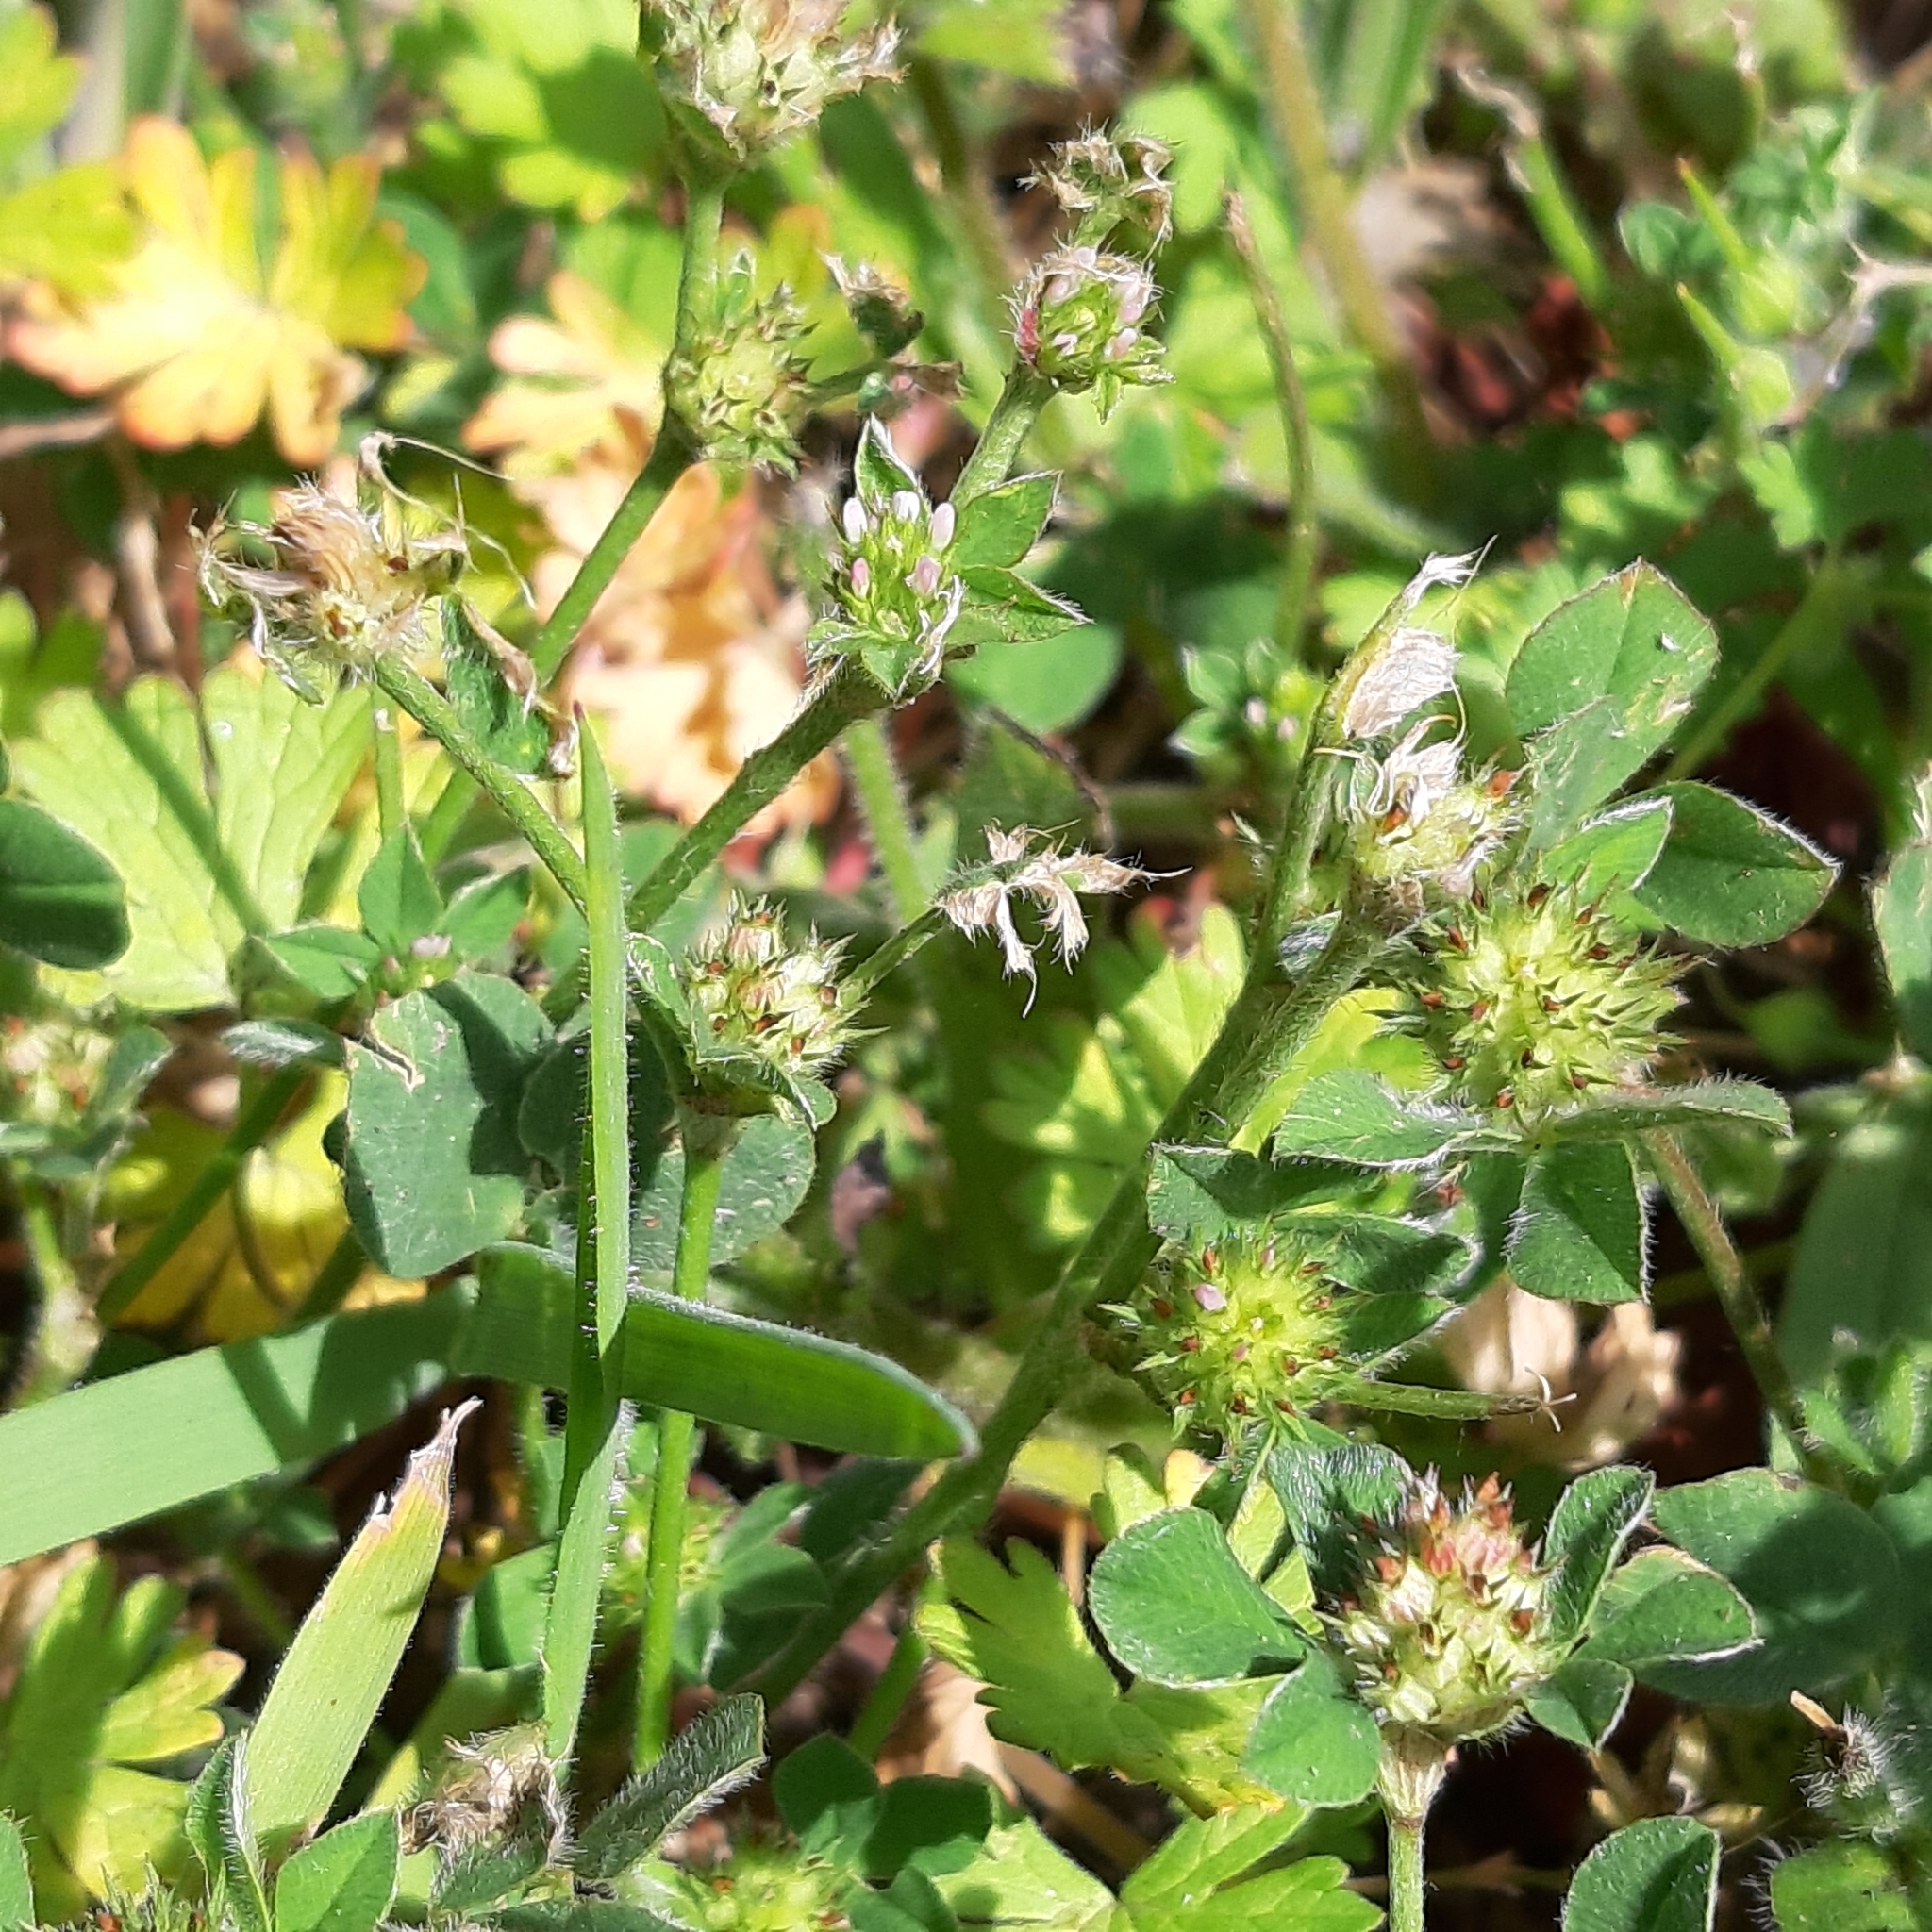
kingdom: Plantae
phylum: Tracheophyta
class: Magnoliopsida
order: Fabales
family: Fabaceae
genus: Trifolium
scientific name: Trifolium striatum
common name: Knotted clover
